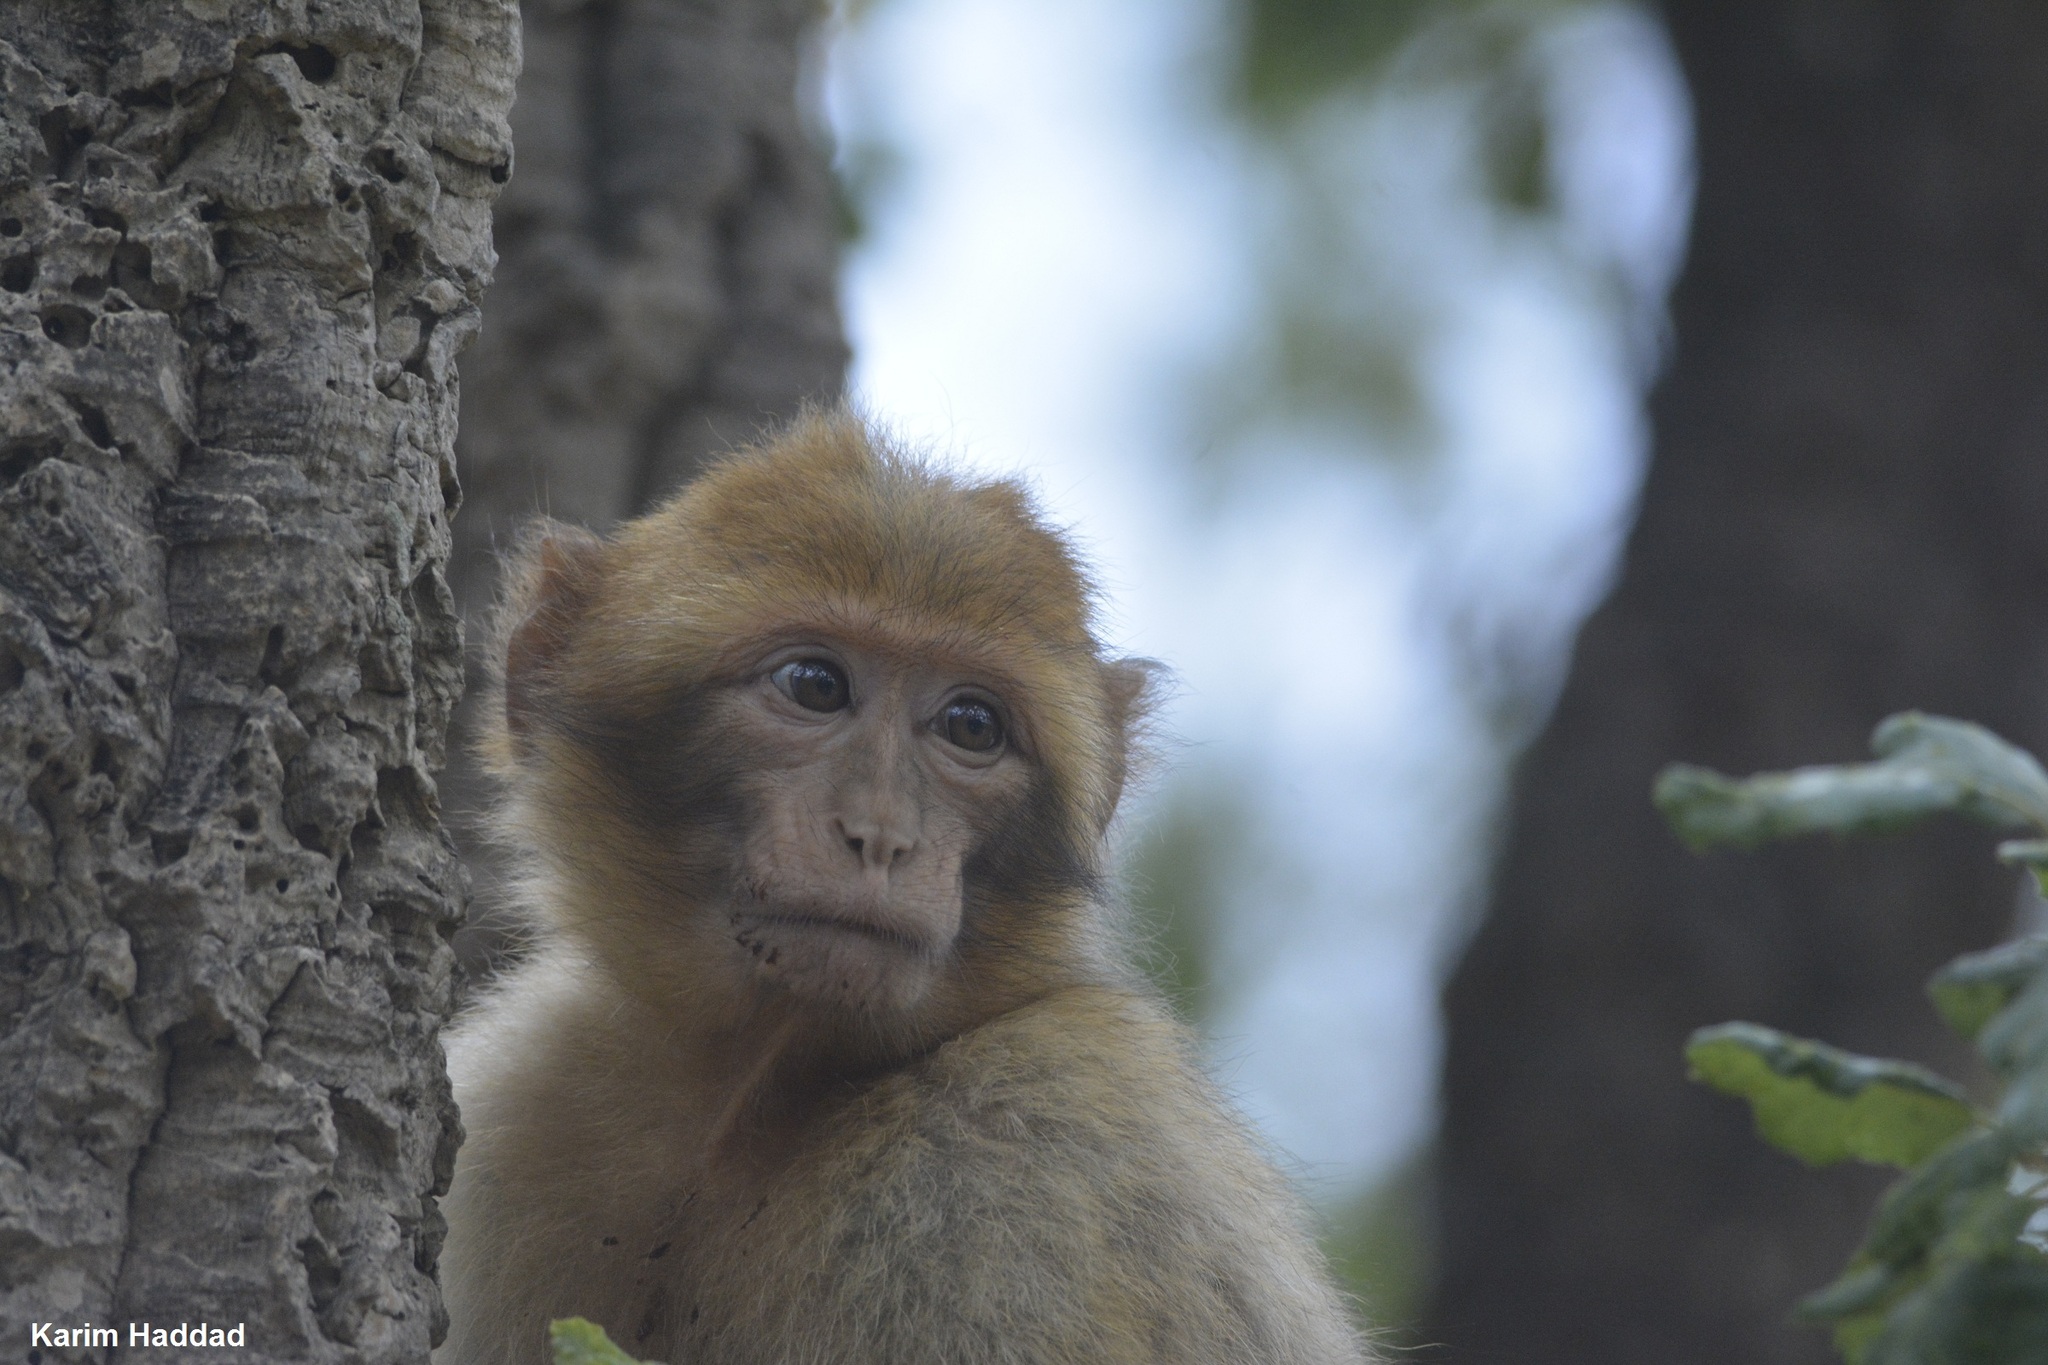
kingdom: Animalia
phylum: Chordata
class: Mammalia
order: Primates
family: Cercopithecidae
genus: Macaca
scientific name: Macaca sylvanus
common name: Barbary macaque
